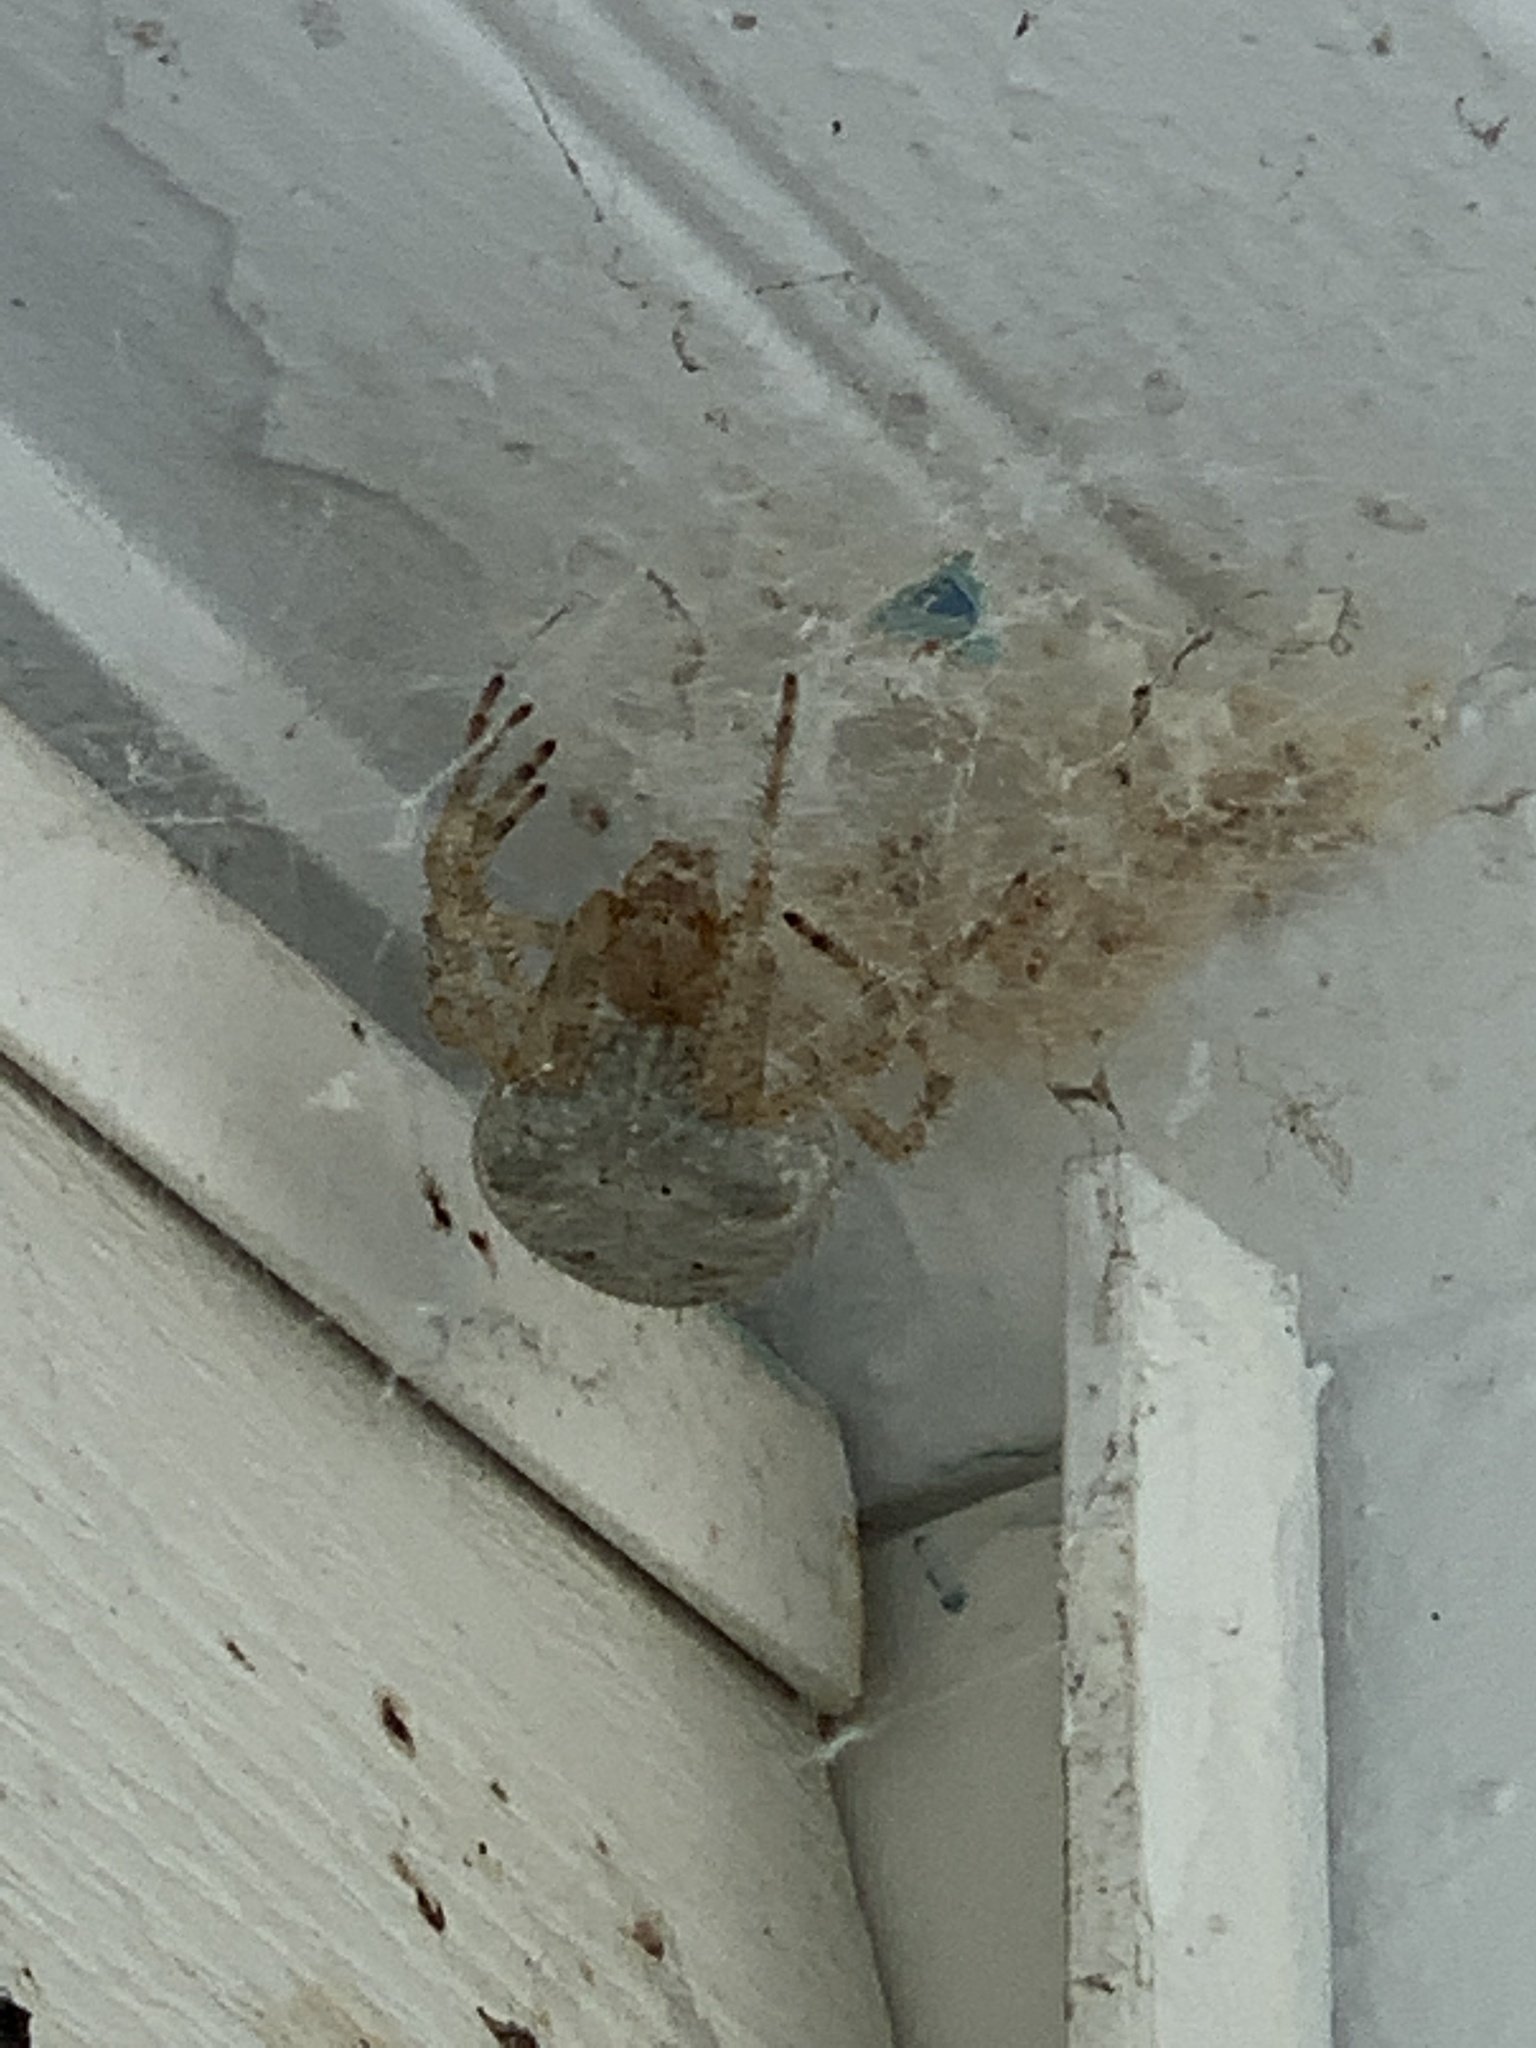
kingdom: Animalia
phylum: Arthropoda
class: Arachnida
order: Araneae
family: Araneidae
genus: Araneus
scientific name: Araneus cavaticus
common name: Barn orbweaver
